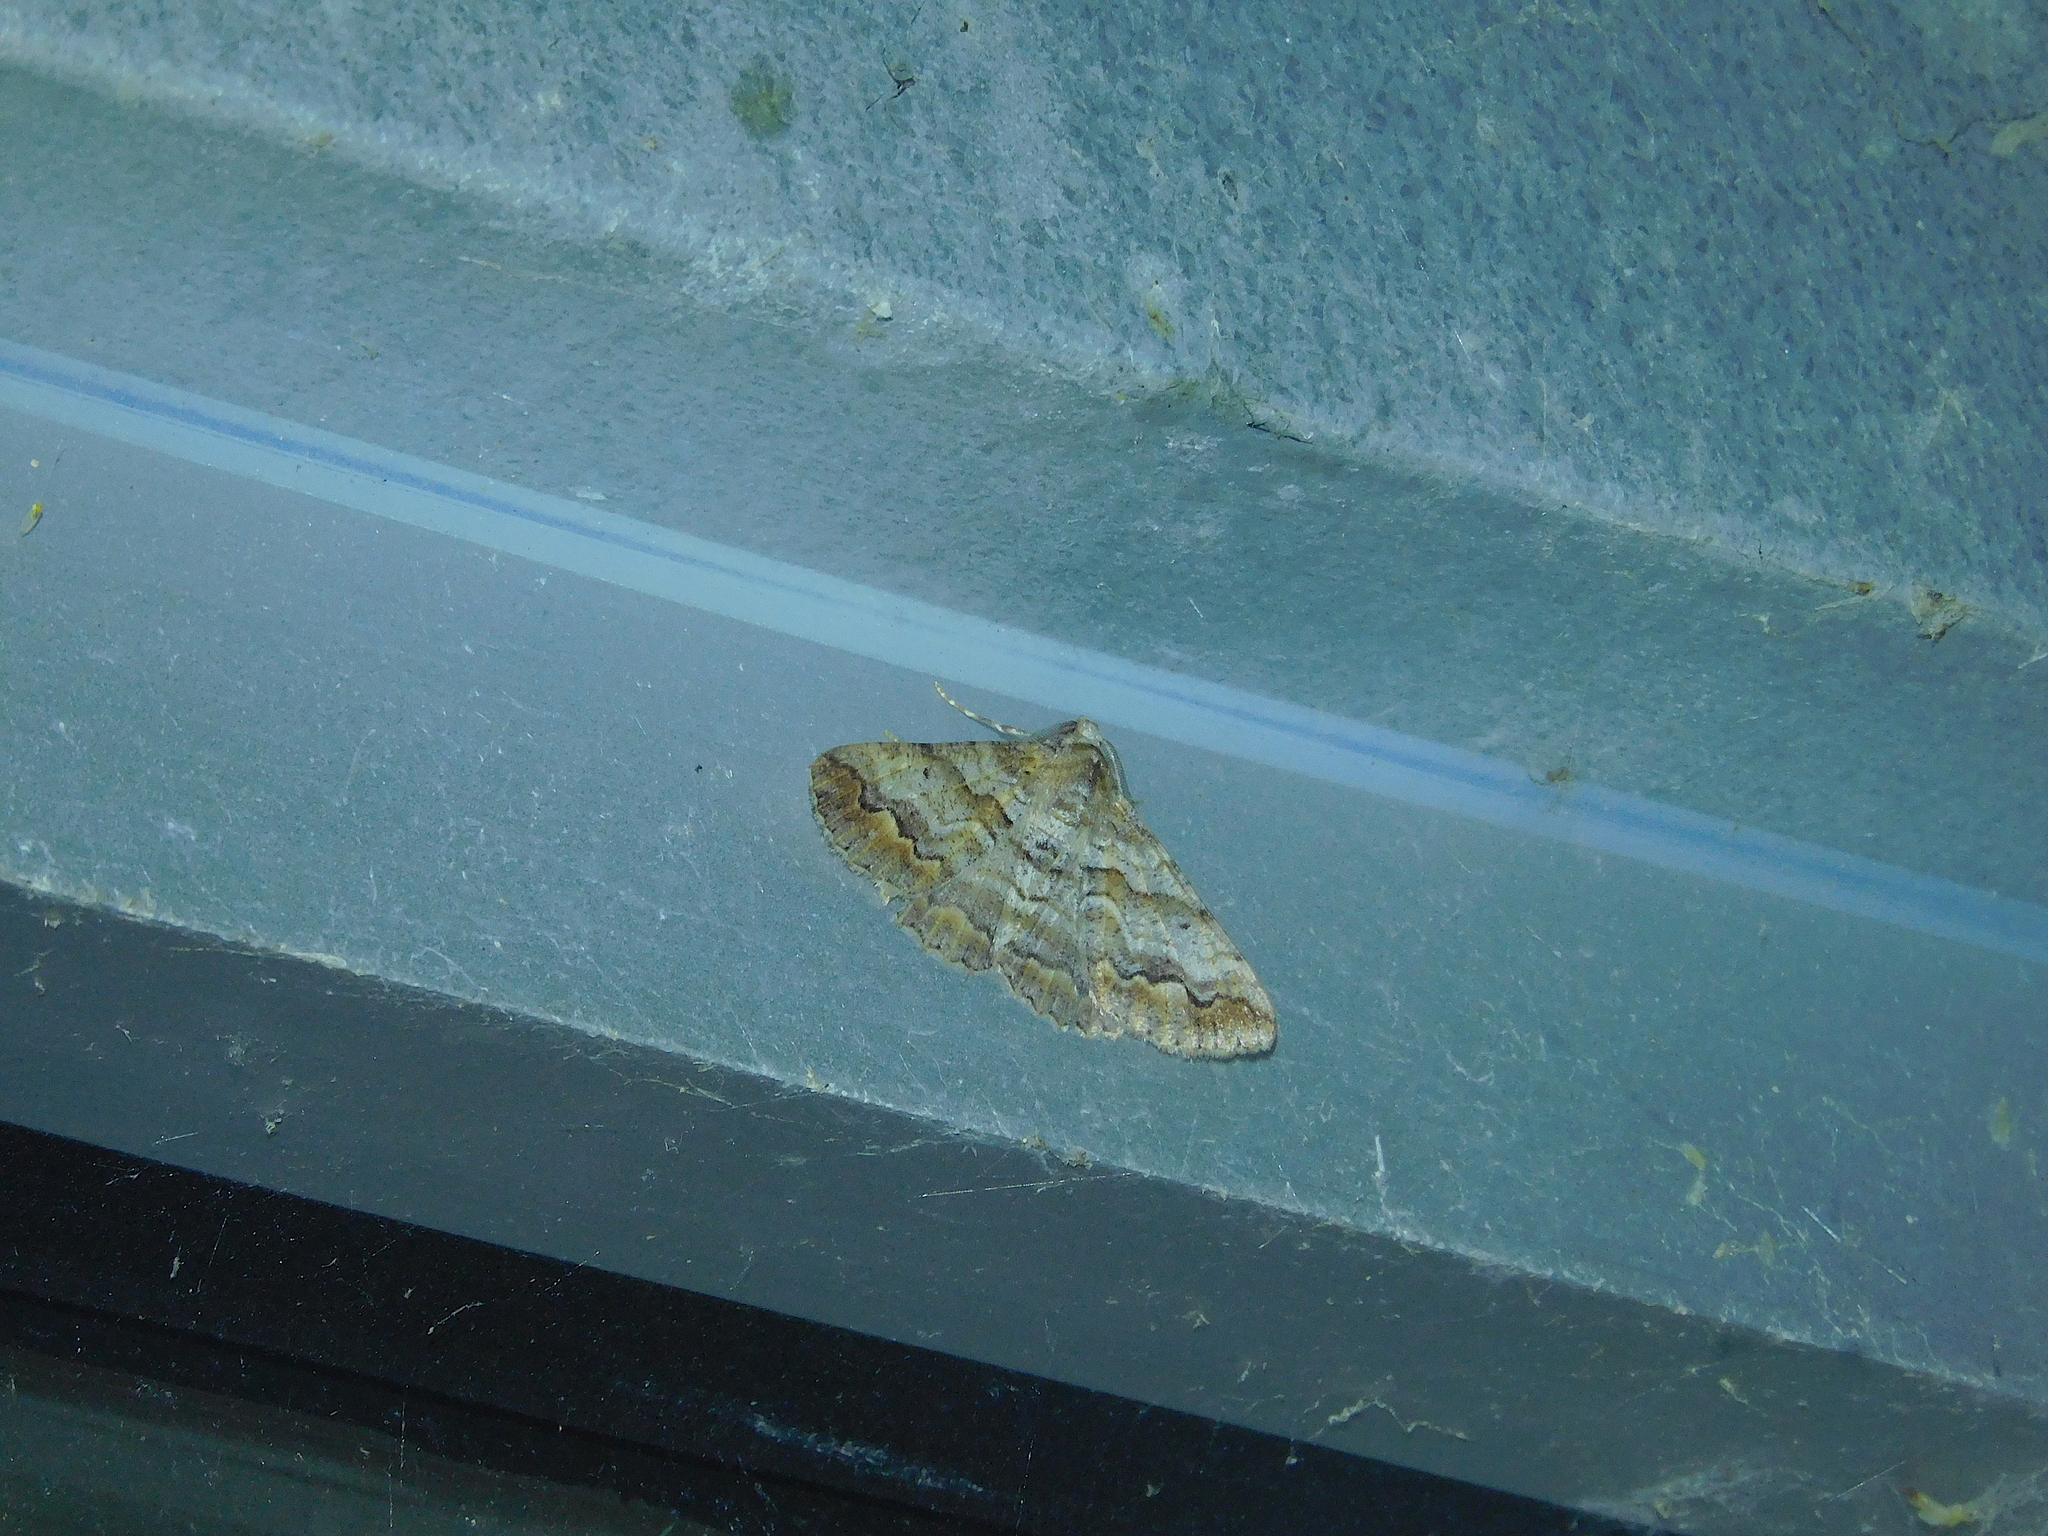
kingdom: Animalia
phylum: Arthropoda
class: Insecta
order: Lepidoptera
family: Geometridae
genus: Gastrinodes
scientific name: Gastrinodes bitaeniaria
